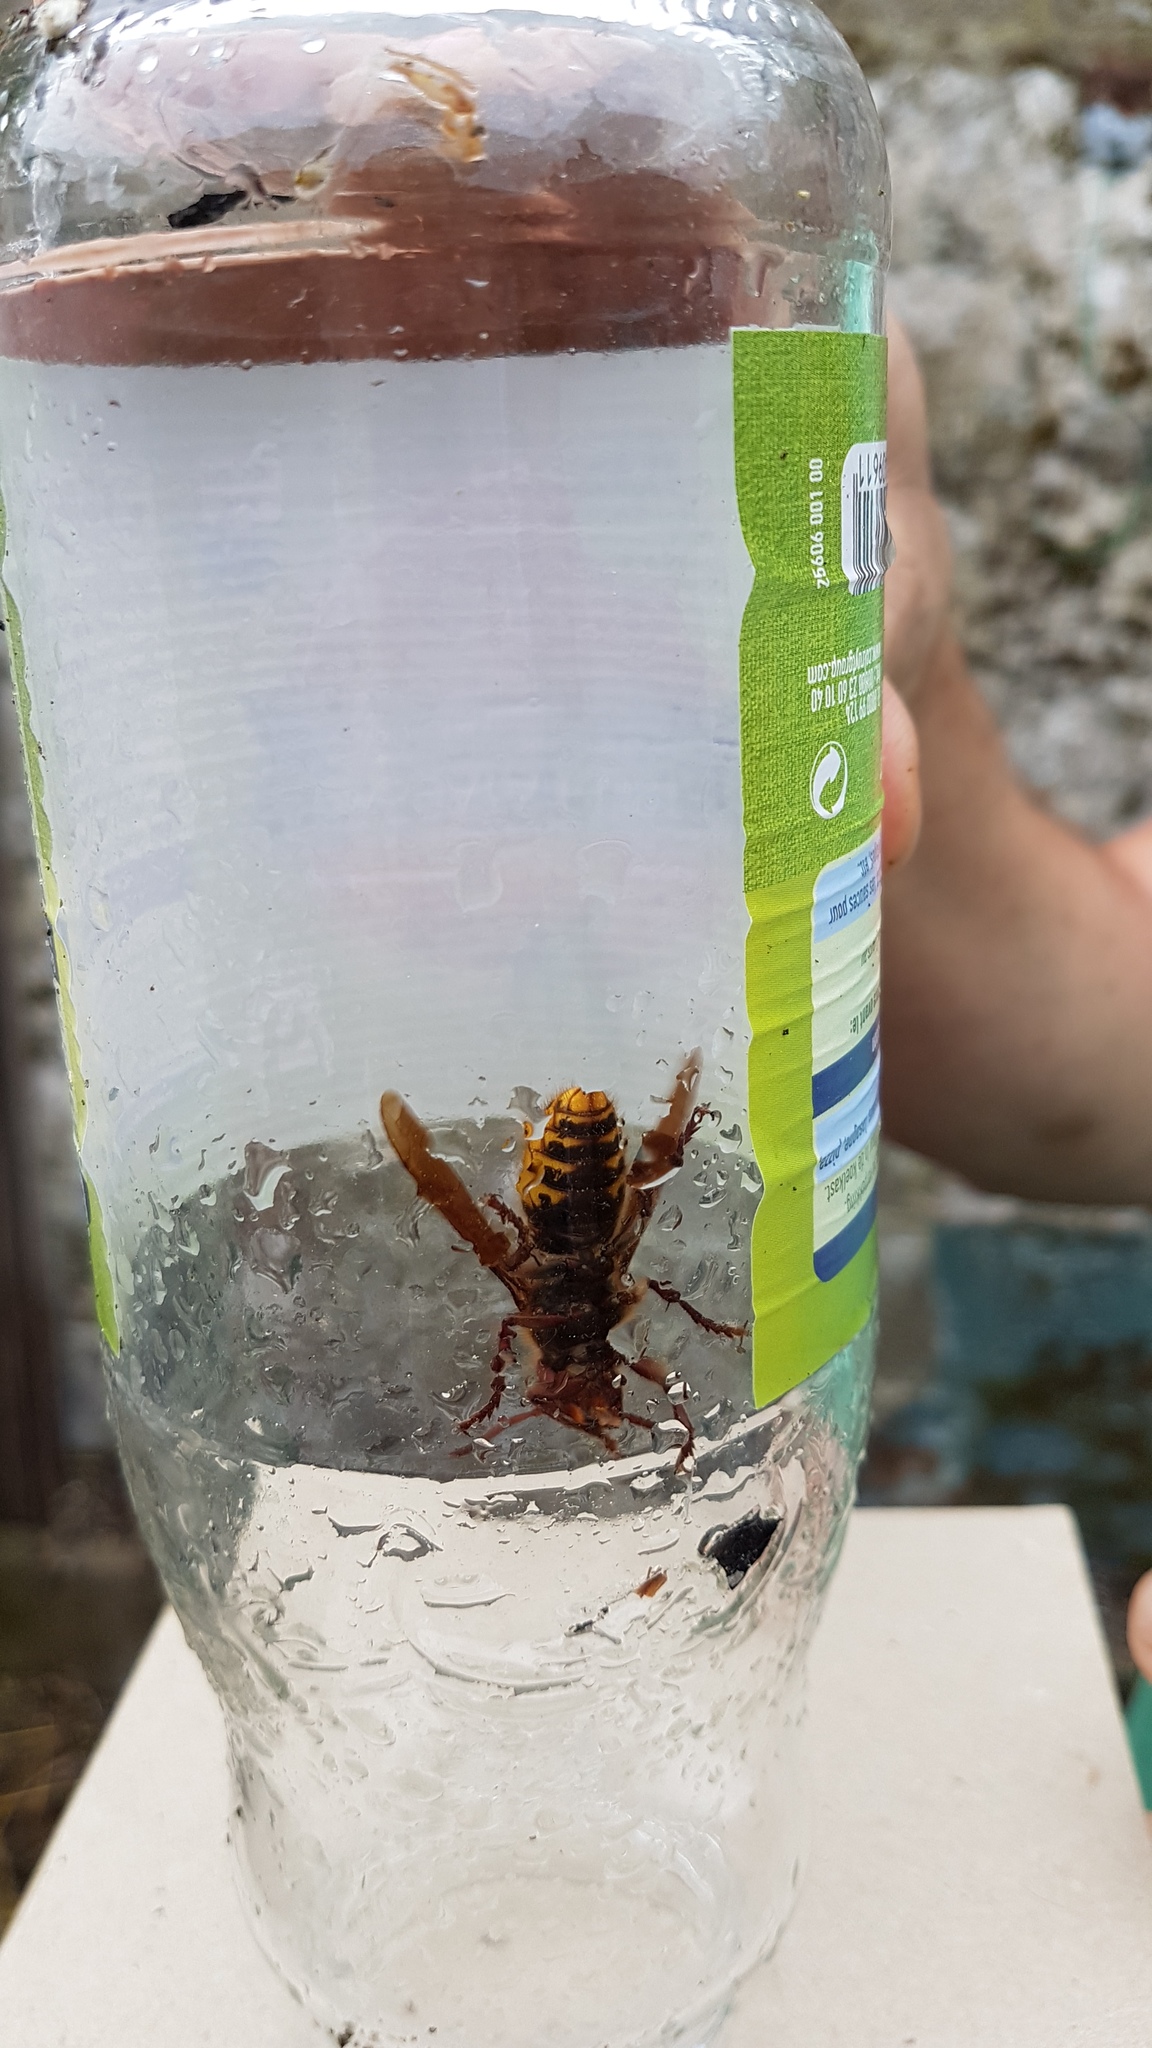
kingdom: Animalia
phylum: Arthropoda
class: Insecta
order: Hymenoptera
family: Vespidae
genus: Vespa
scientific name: Vespa crabro
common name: Hornet
